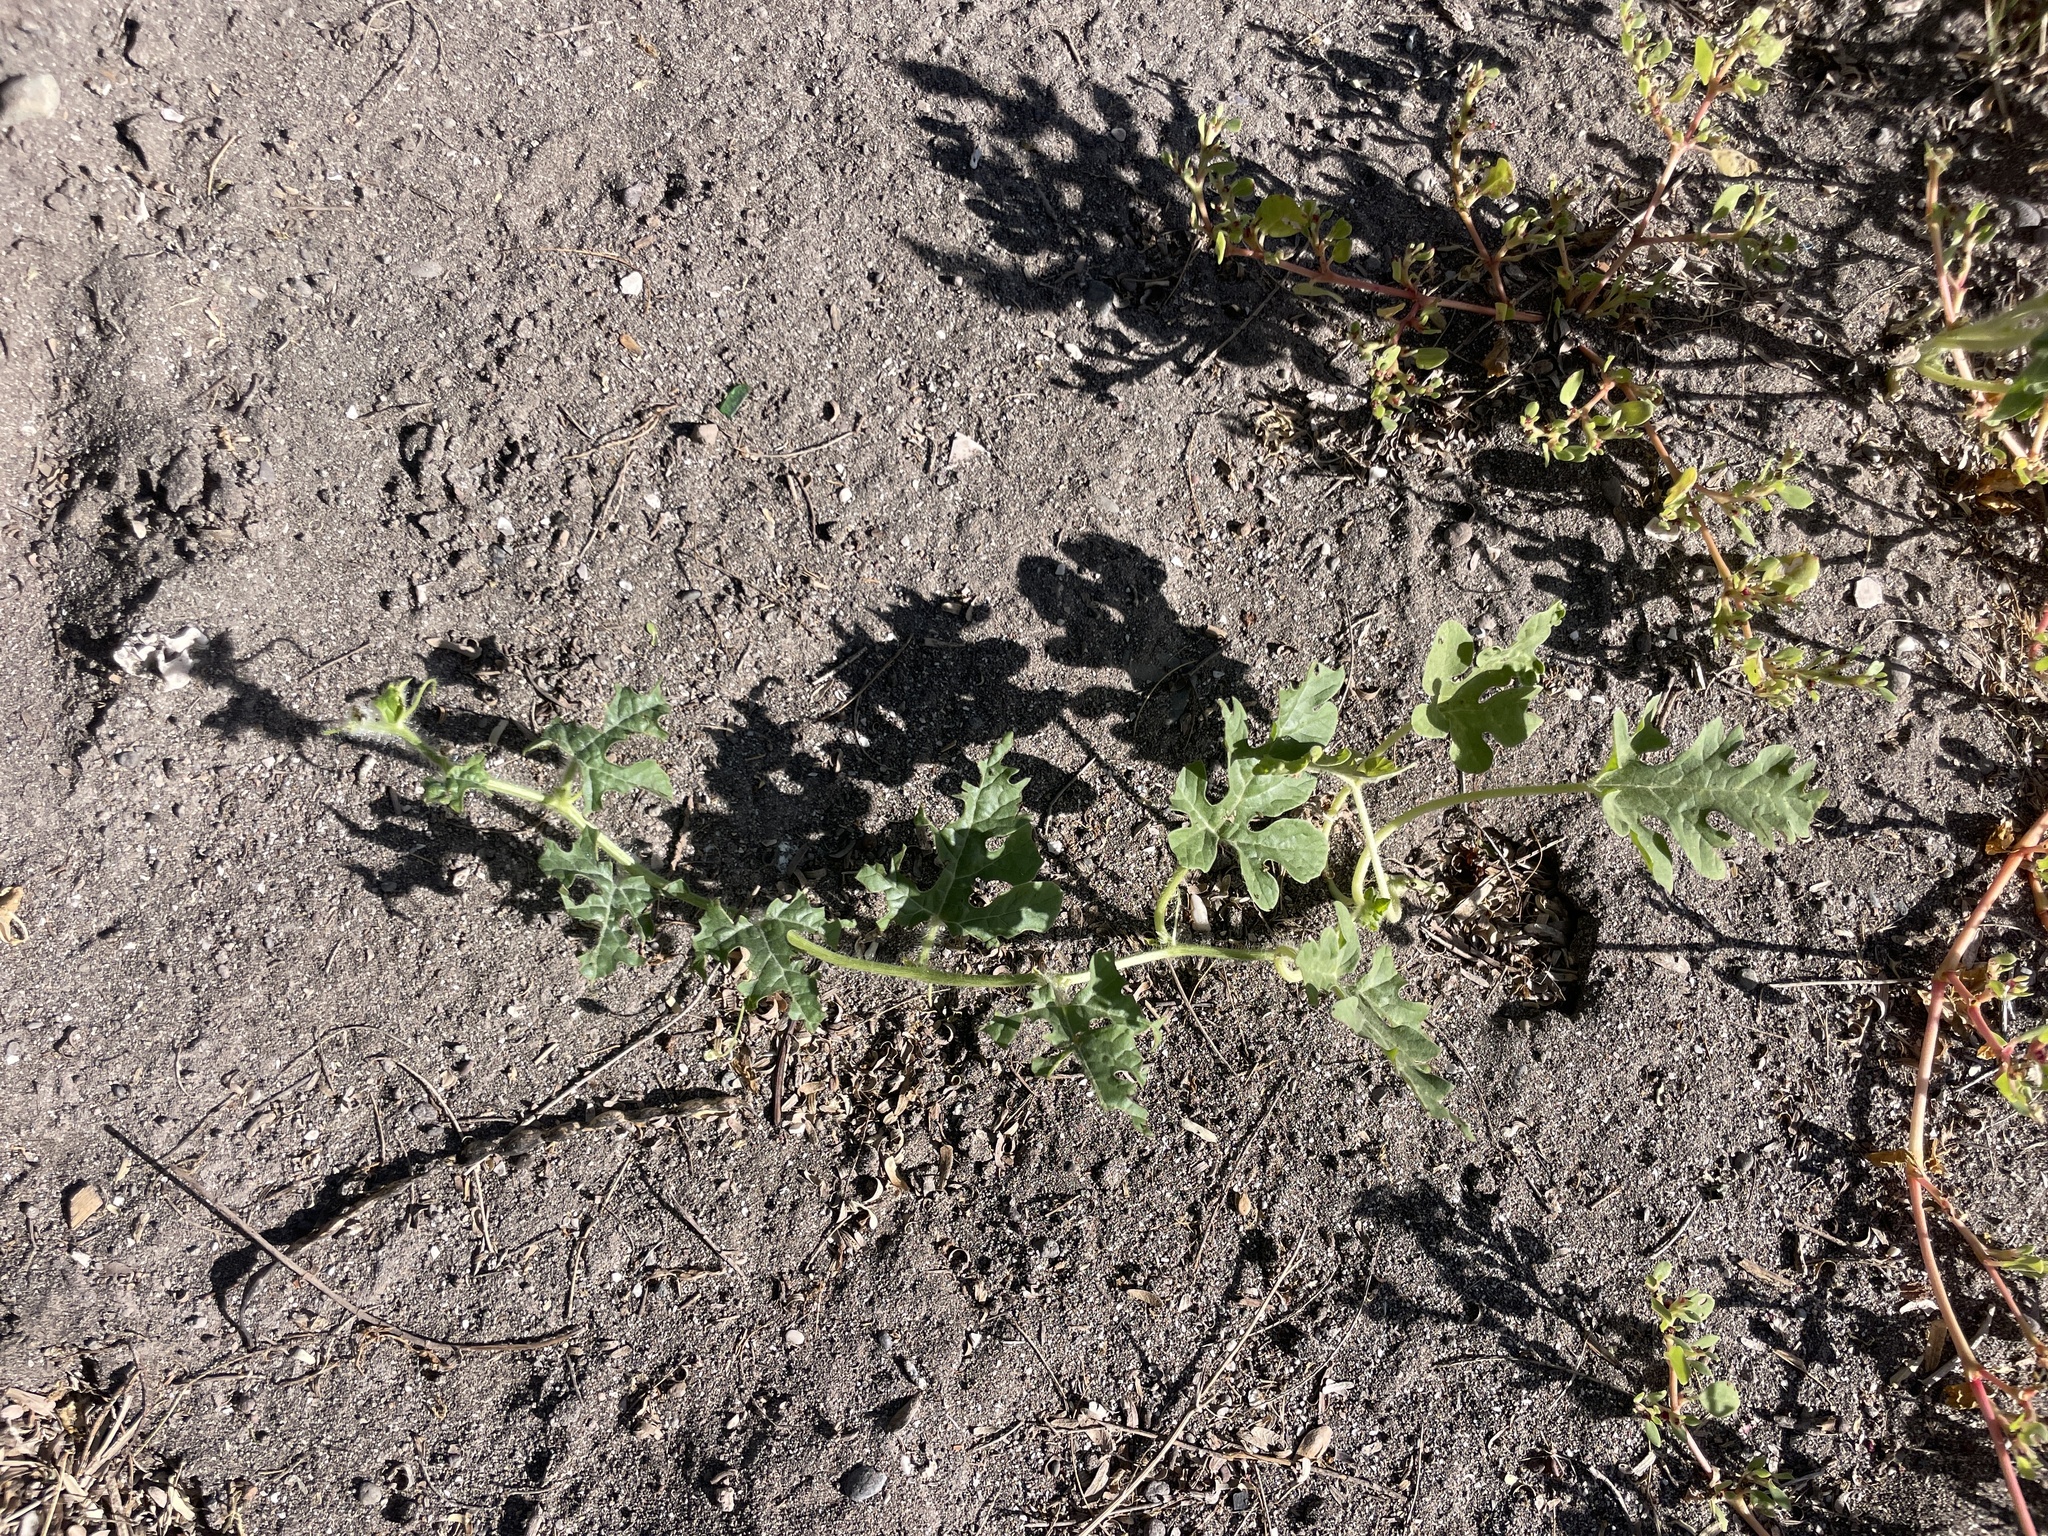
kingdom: Plantae
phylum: Tracheophyta
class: Magnoliopsida
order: Cucurbitales
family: Cucurbitaceae
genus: Citrullus
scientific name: Citrullus lanatus
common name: Watermelon
